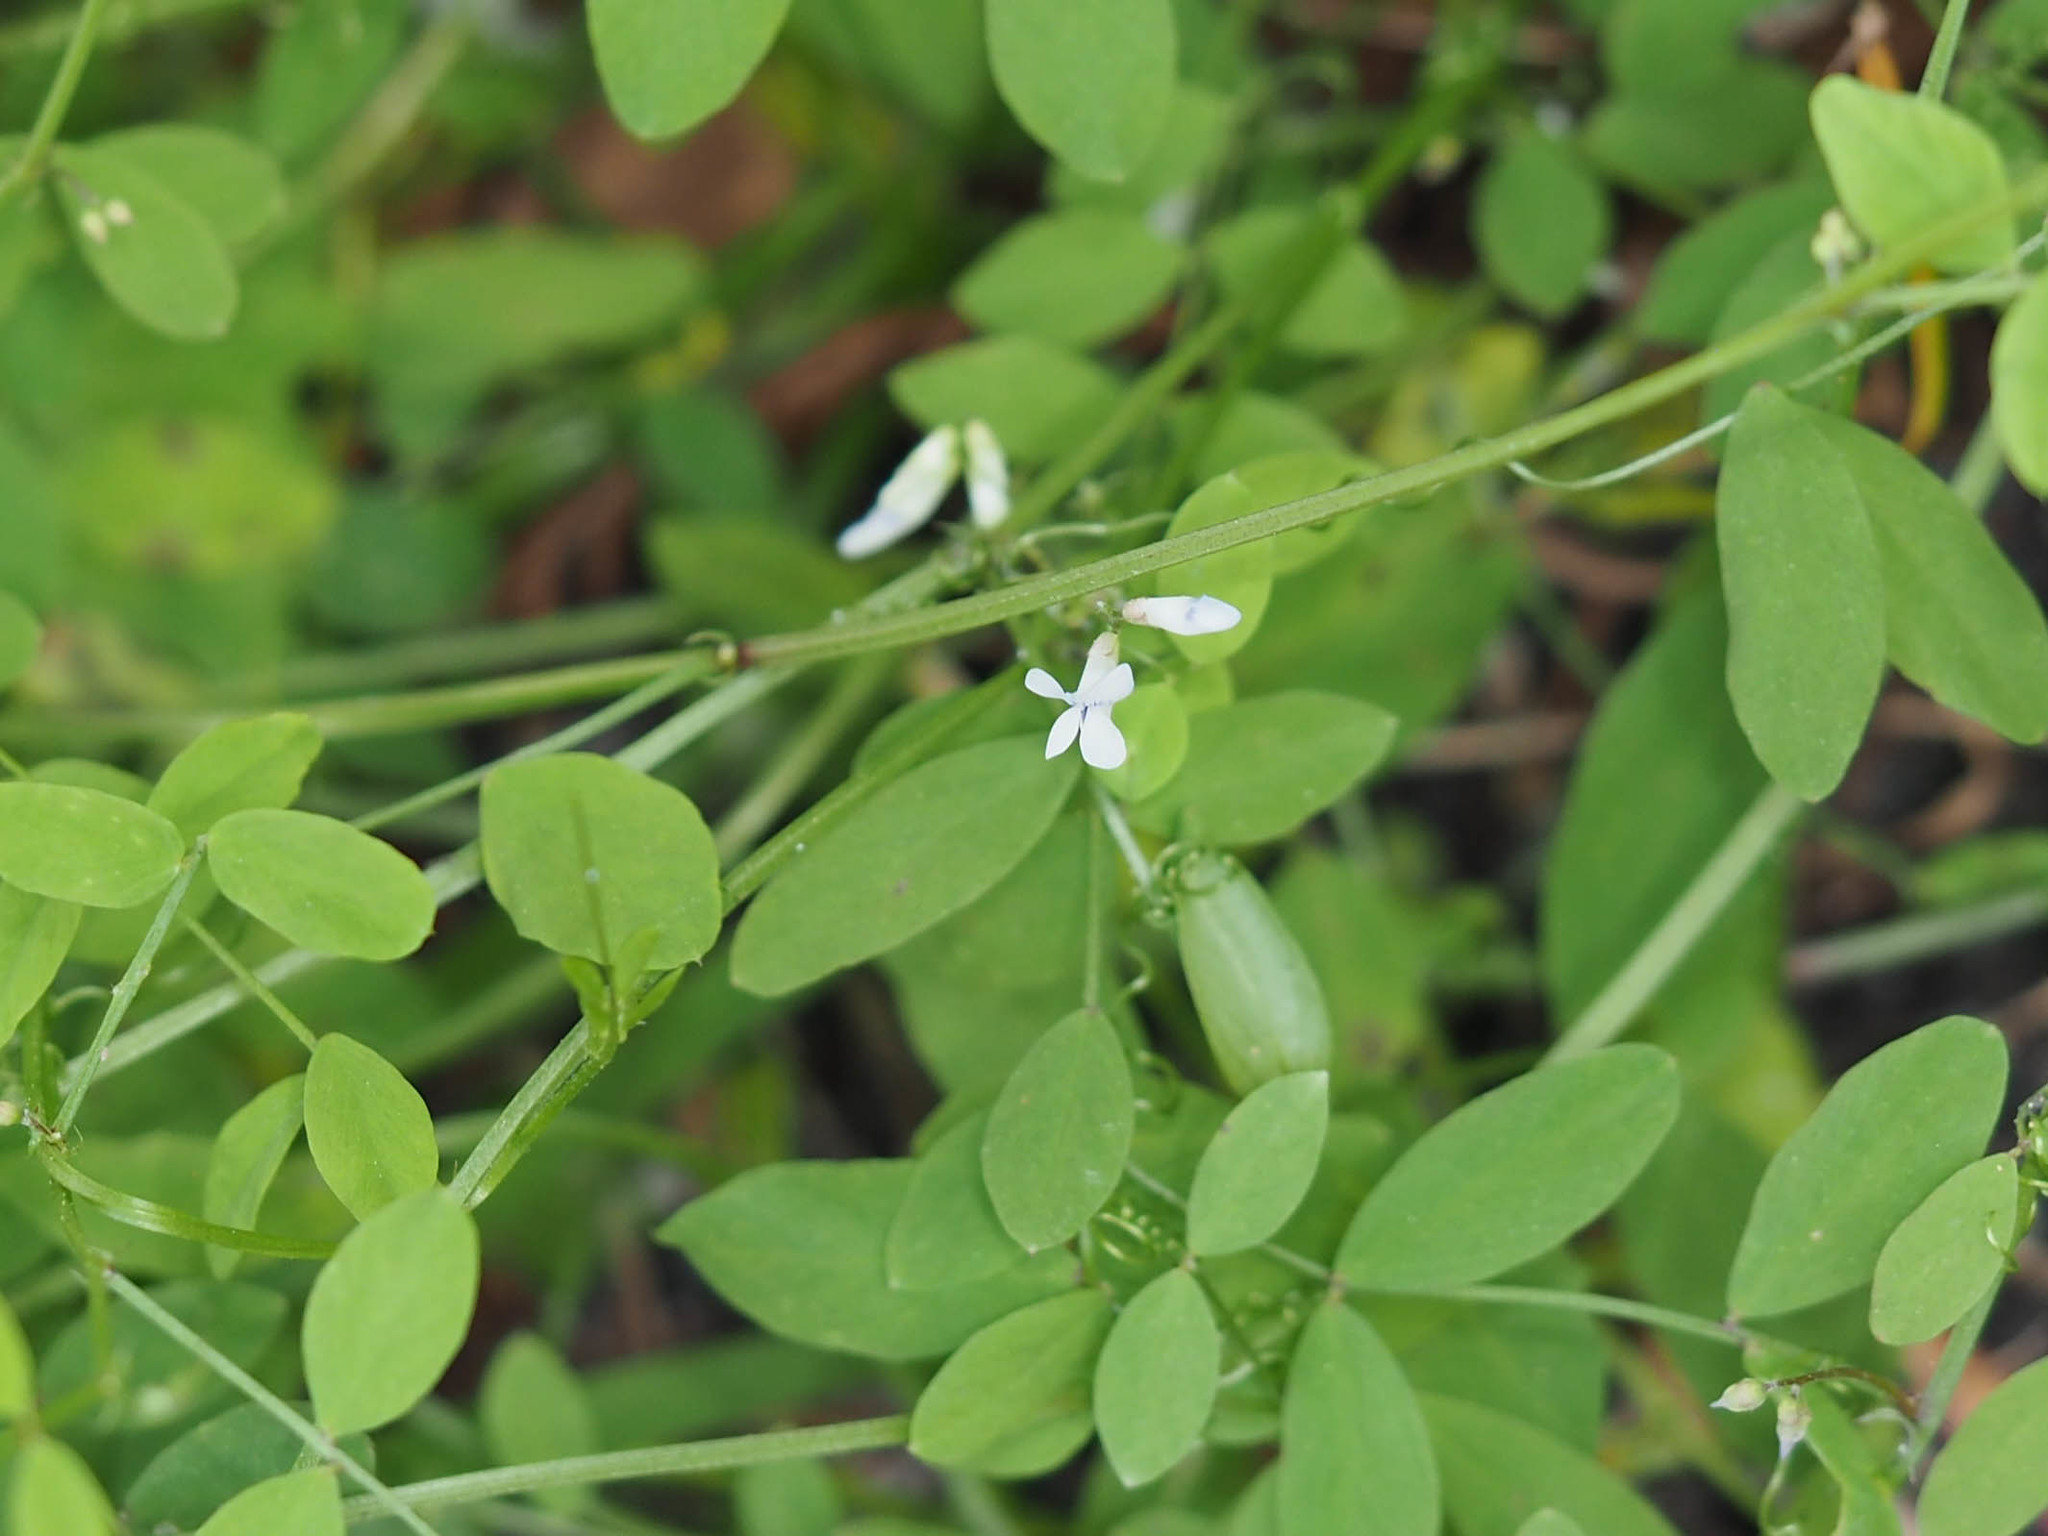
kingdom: Plantae
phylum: Tracheophyta
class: Magnoliopsida
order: Fabales
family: Fabaceae
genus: Vicia
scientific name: Vicia floridana
